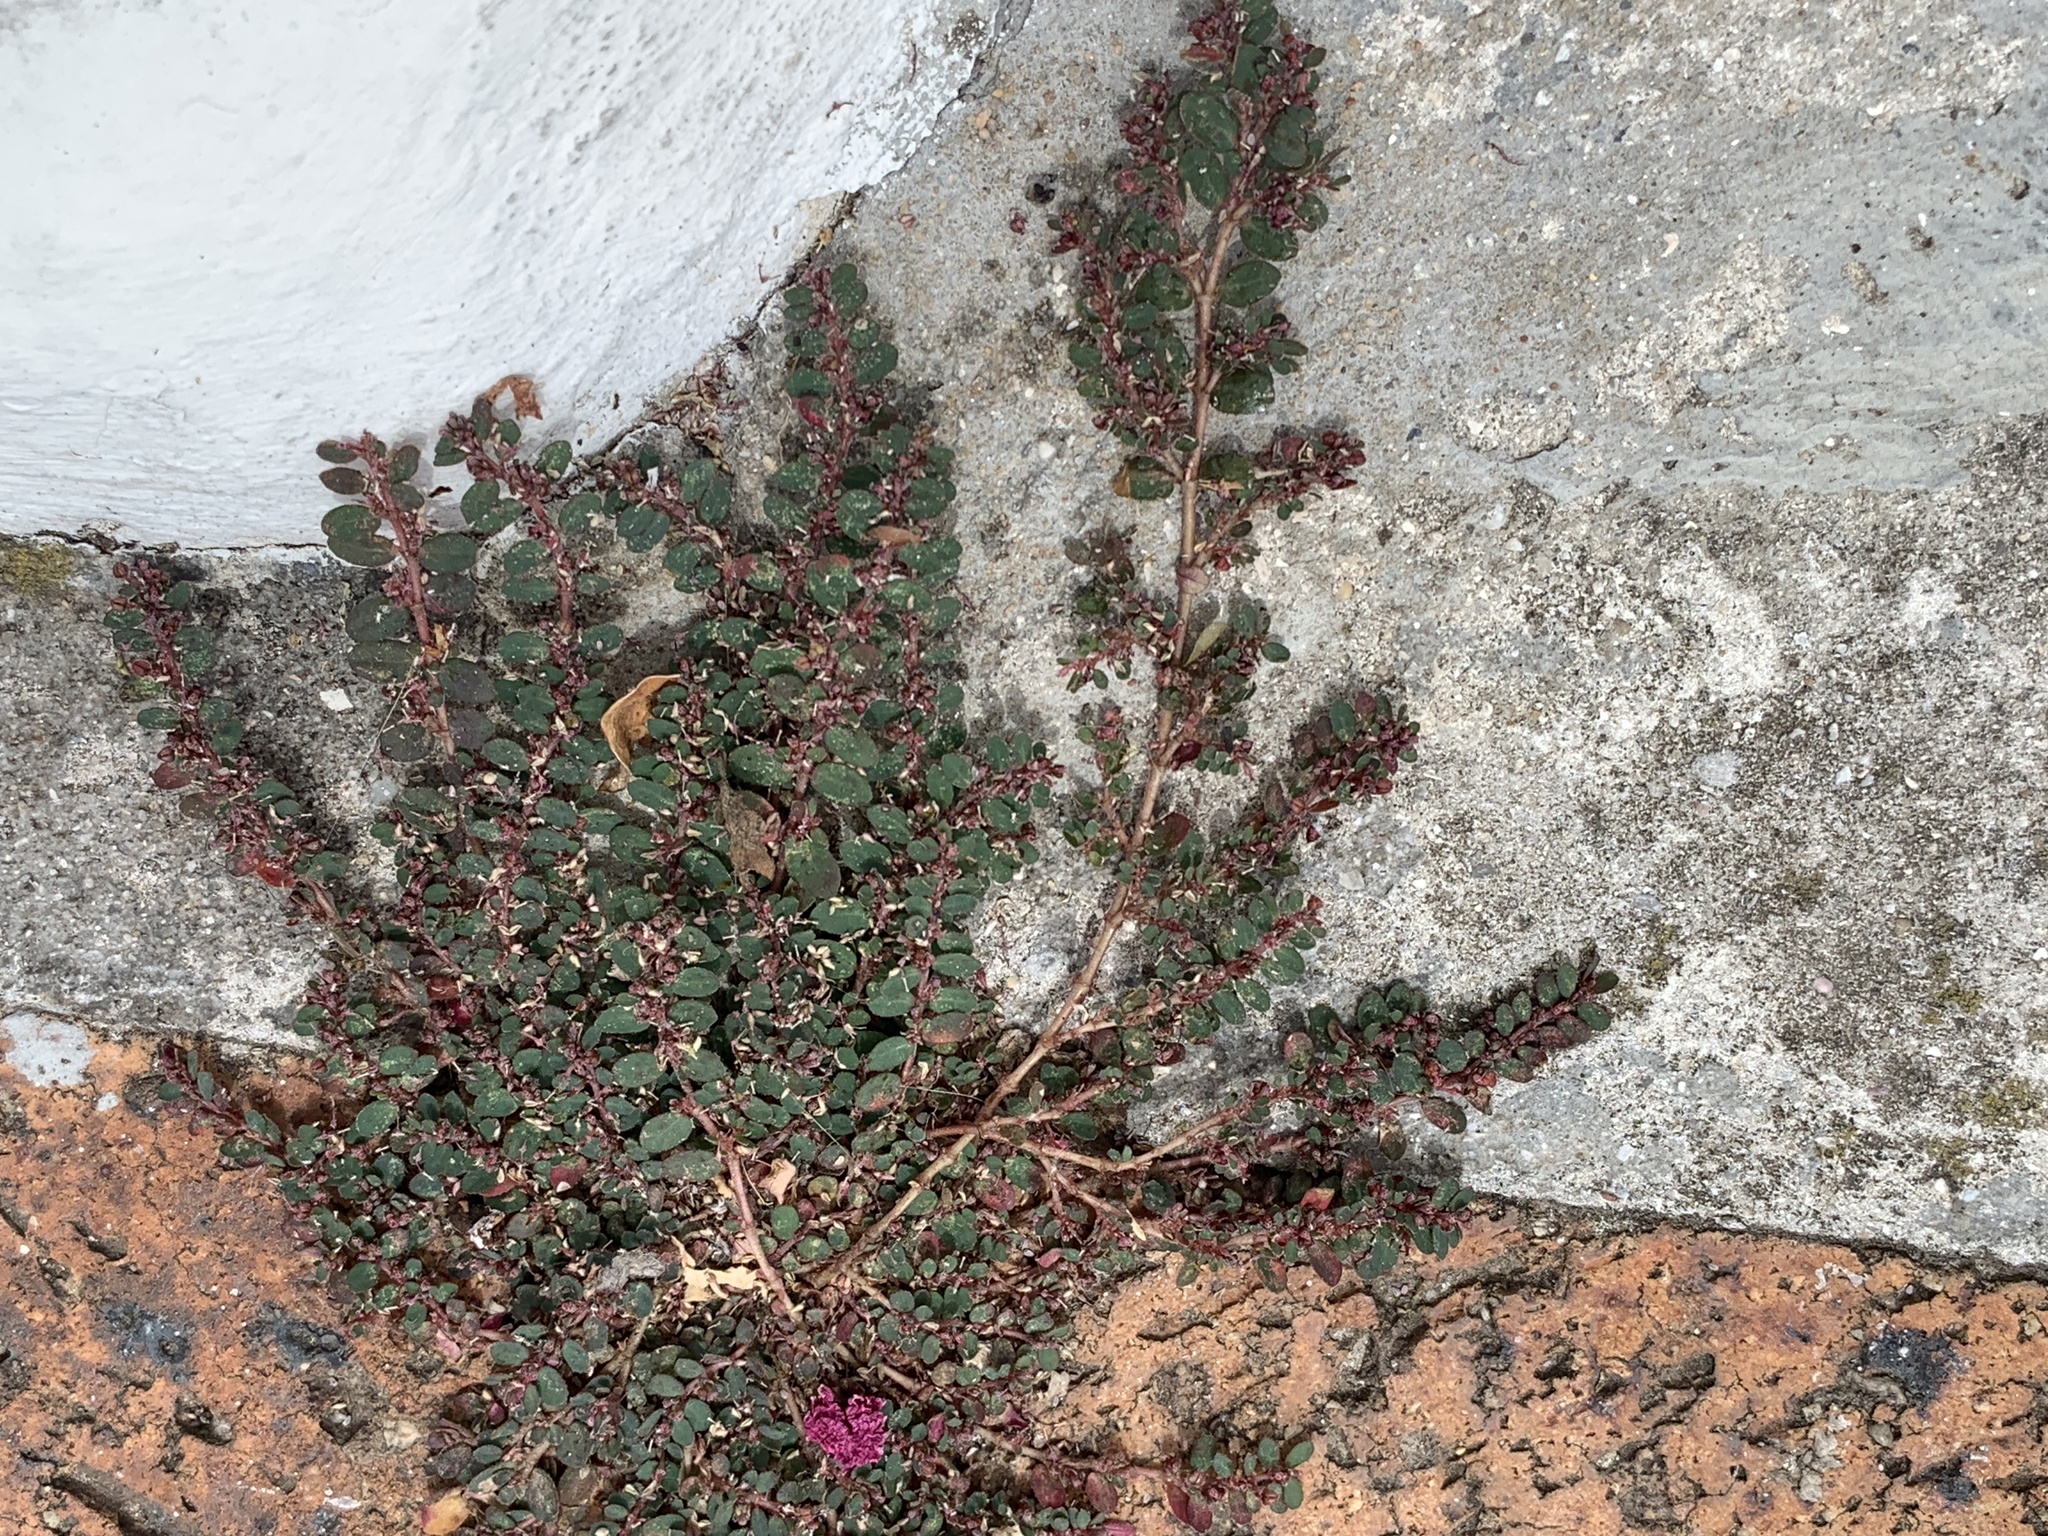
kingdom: Plantae
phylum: Tracheophyta
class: Magnoliopsida
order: Malpighiales
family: Euphorbiaceae
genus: Euphorbia
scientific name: Euphorbia prostrata
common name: Prostrate sandmat
